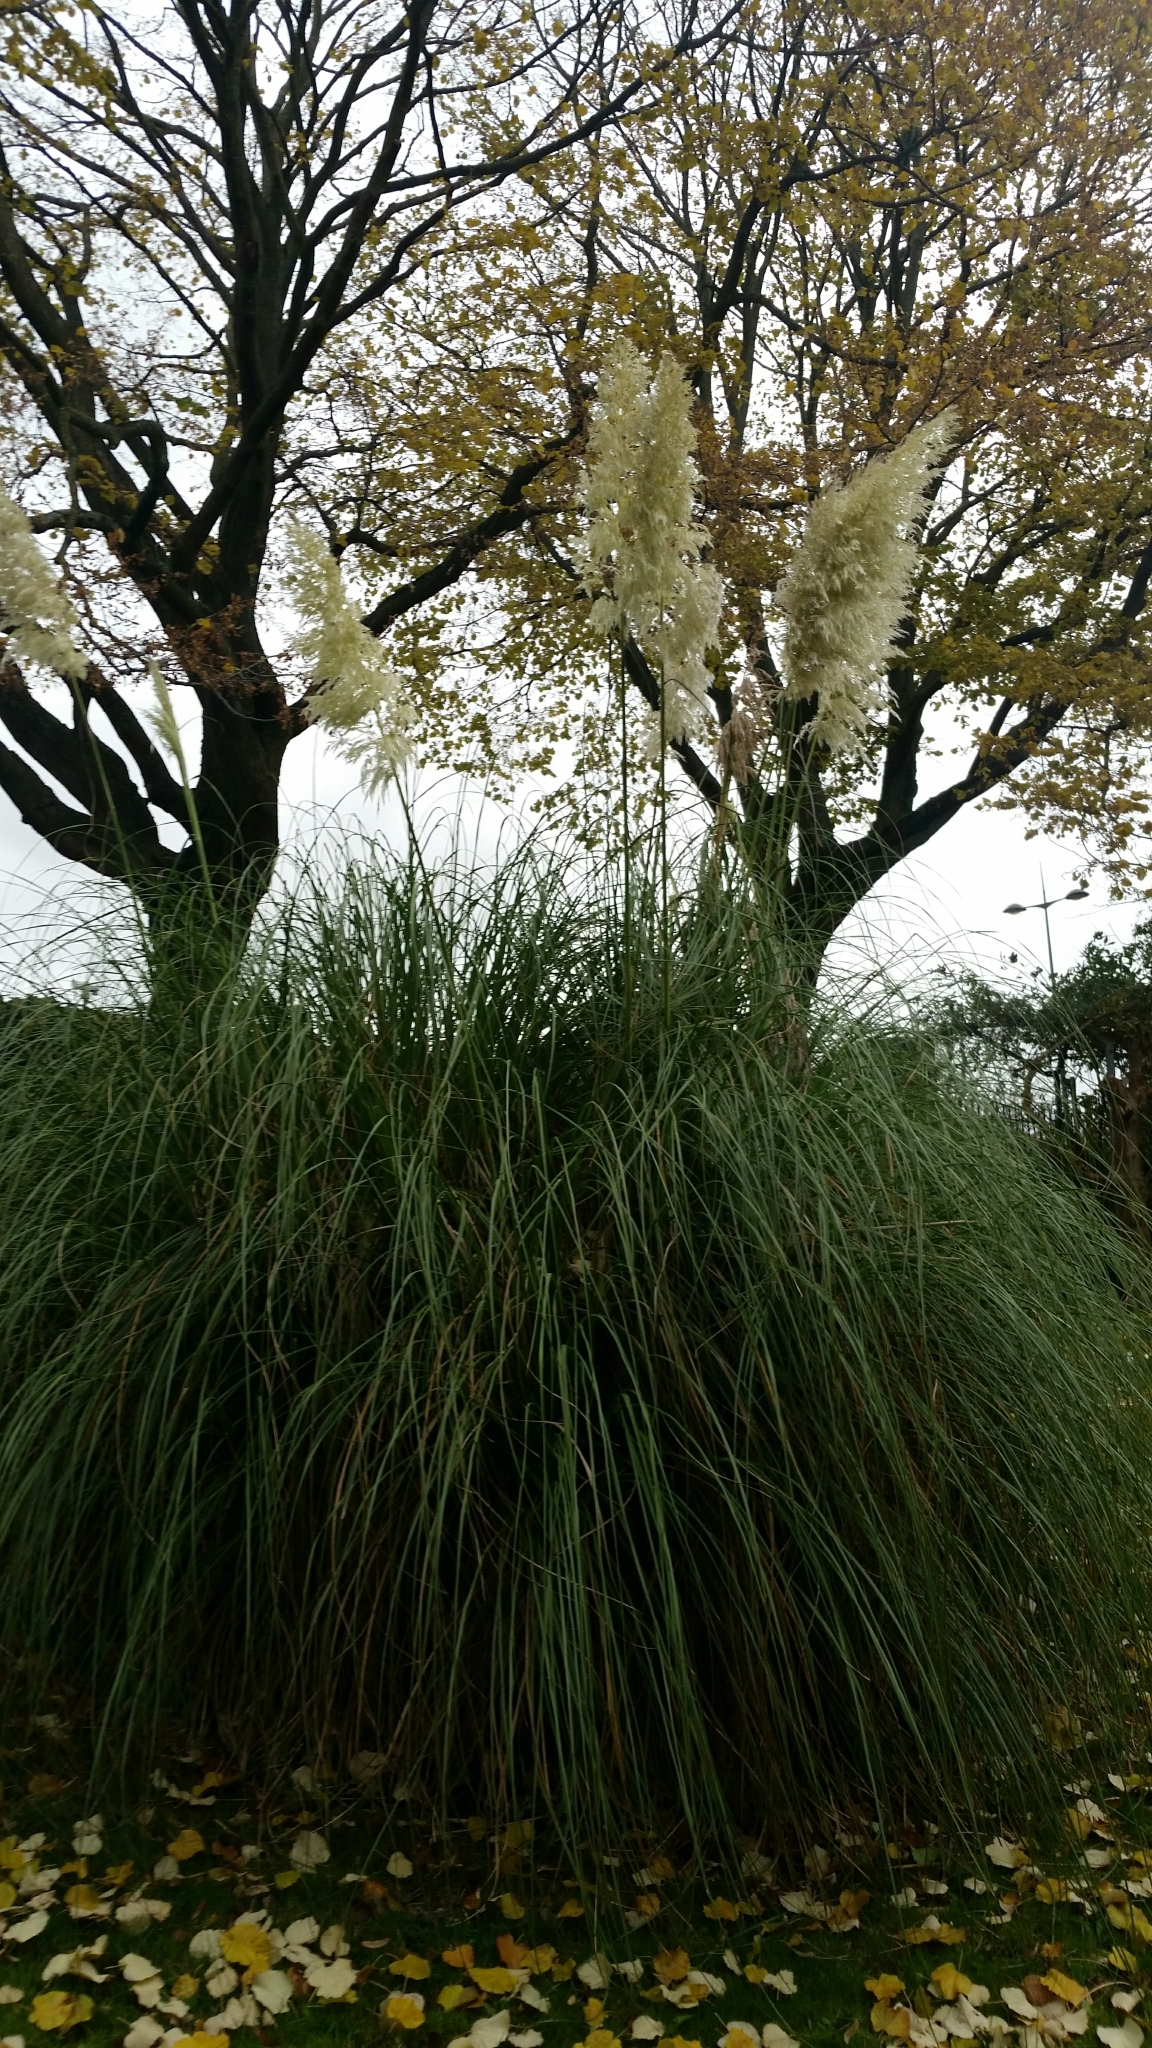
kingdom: Plantae
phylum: Tracheophyta
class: Liliopsida
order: Poales
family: Poaceae
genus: Cortaderia
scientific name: Cortaderia selloana
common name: Uruguayan pampas grass
